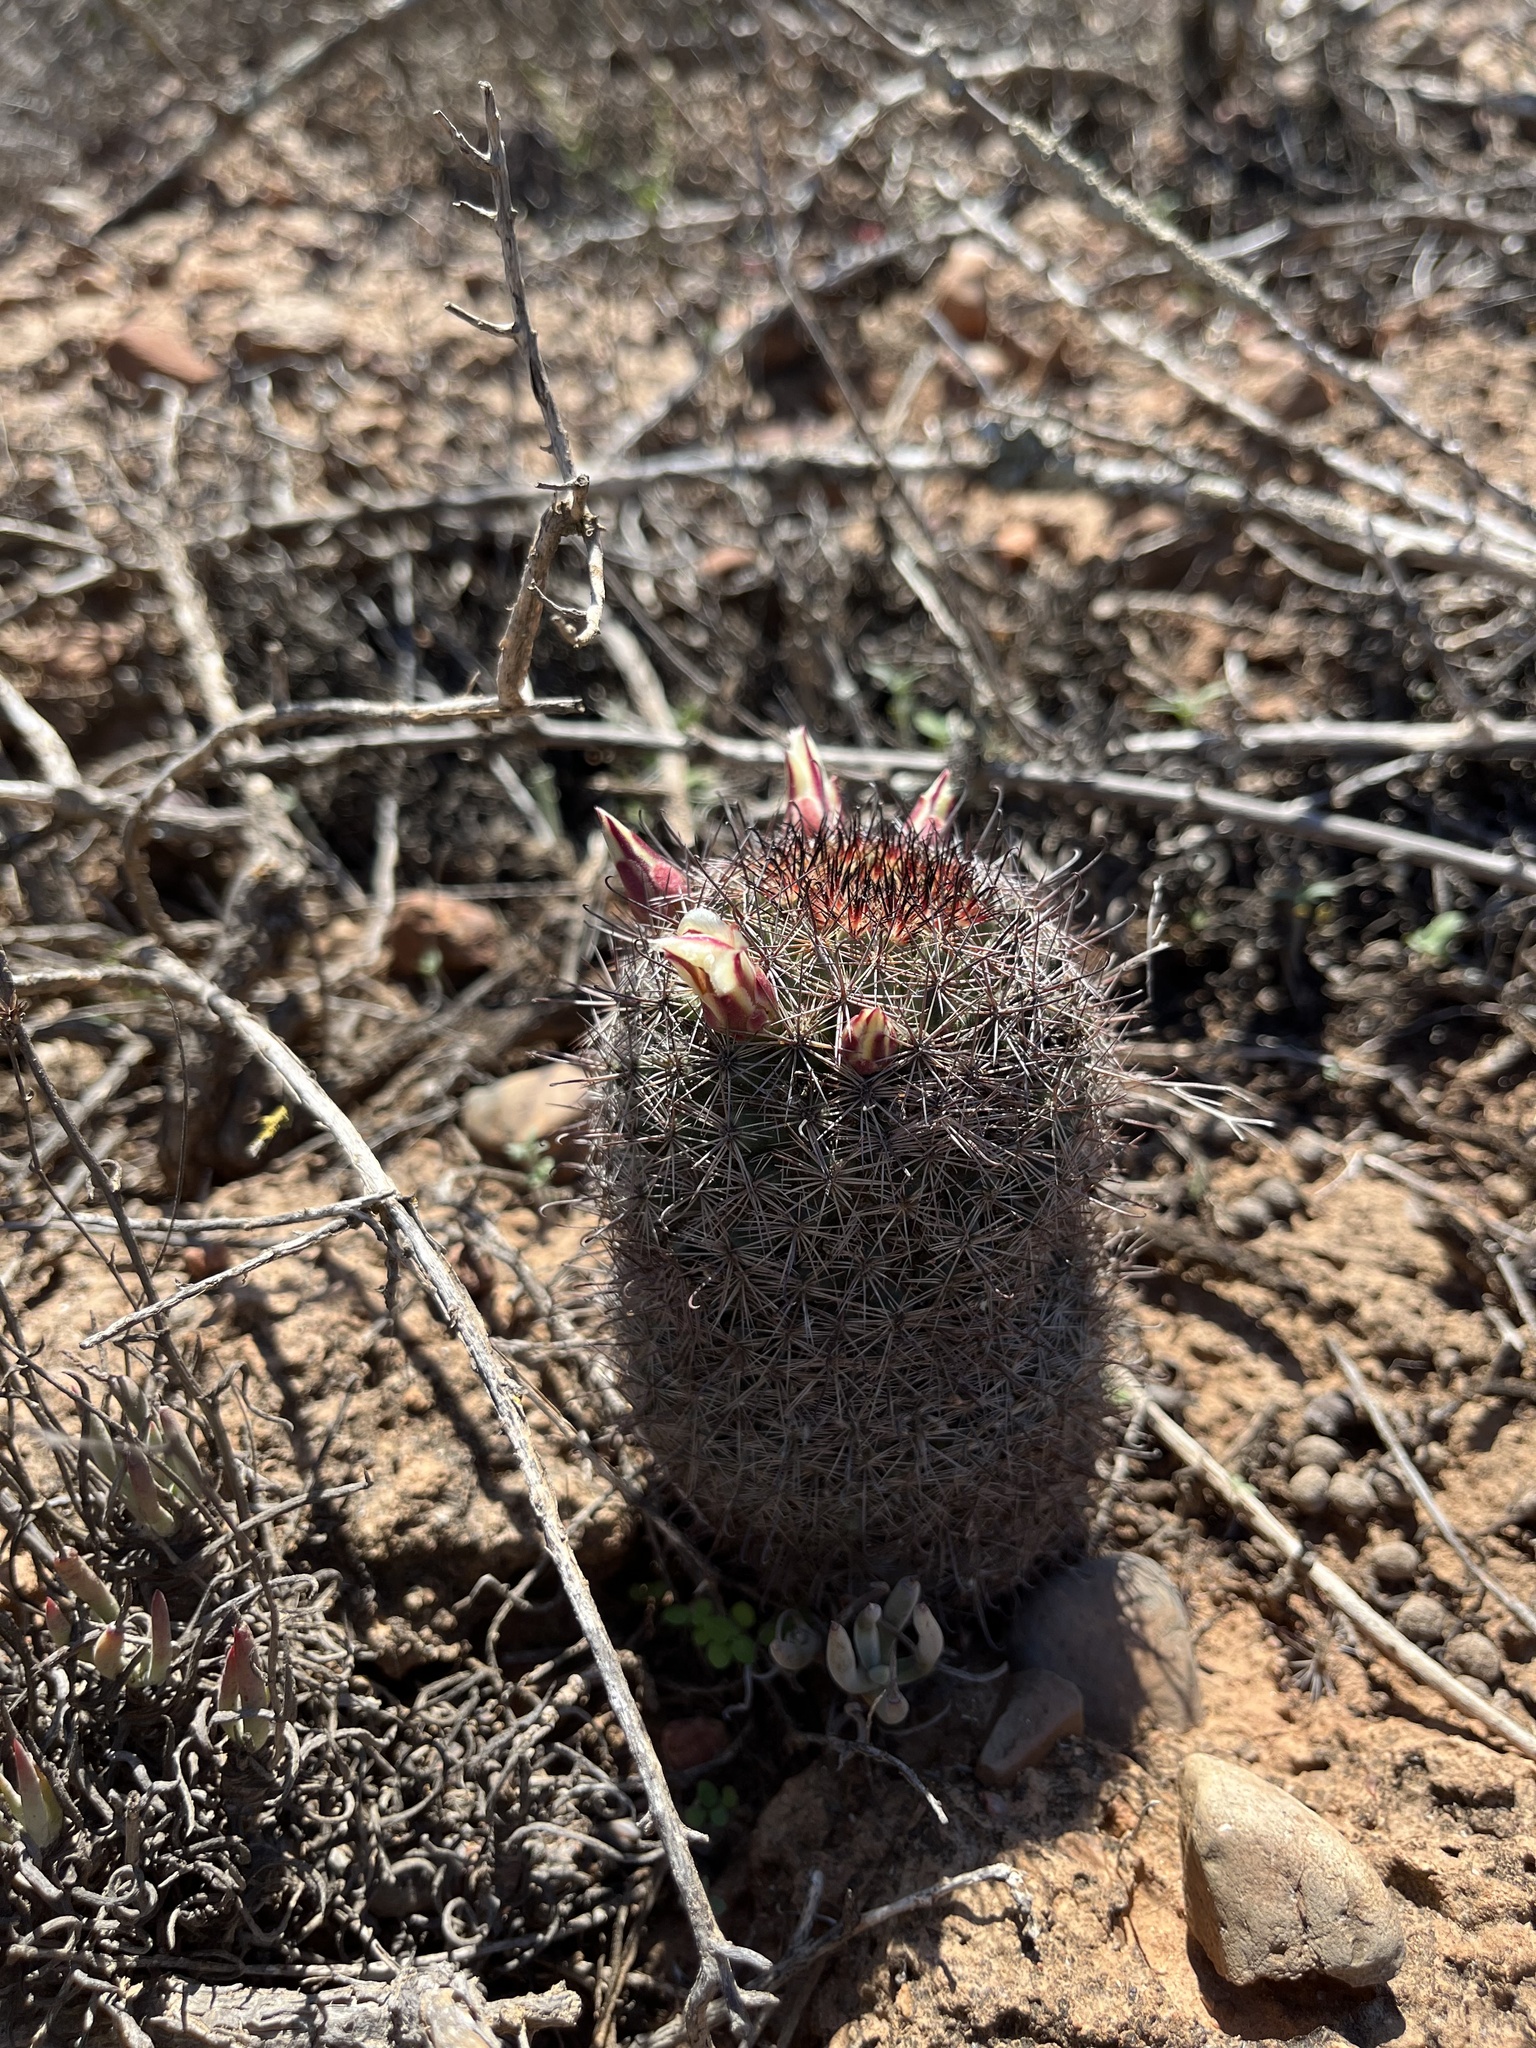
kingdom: Plantae
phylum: Tracheophyta
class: Magnoliopsida
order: Caryophyllales
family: Cactaceae
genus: Cochemiea
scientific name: Cochemiea dioica
